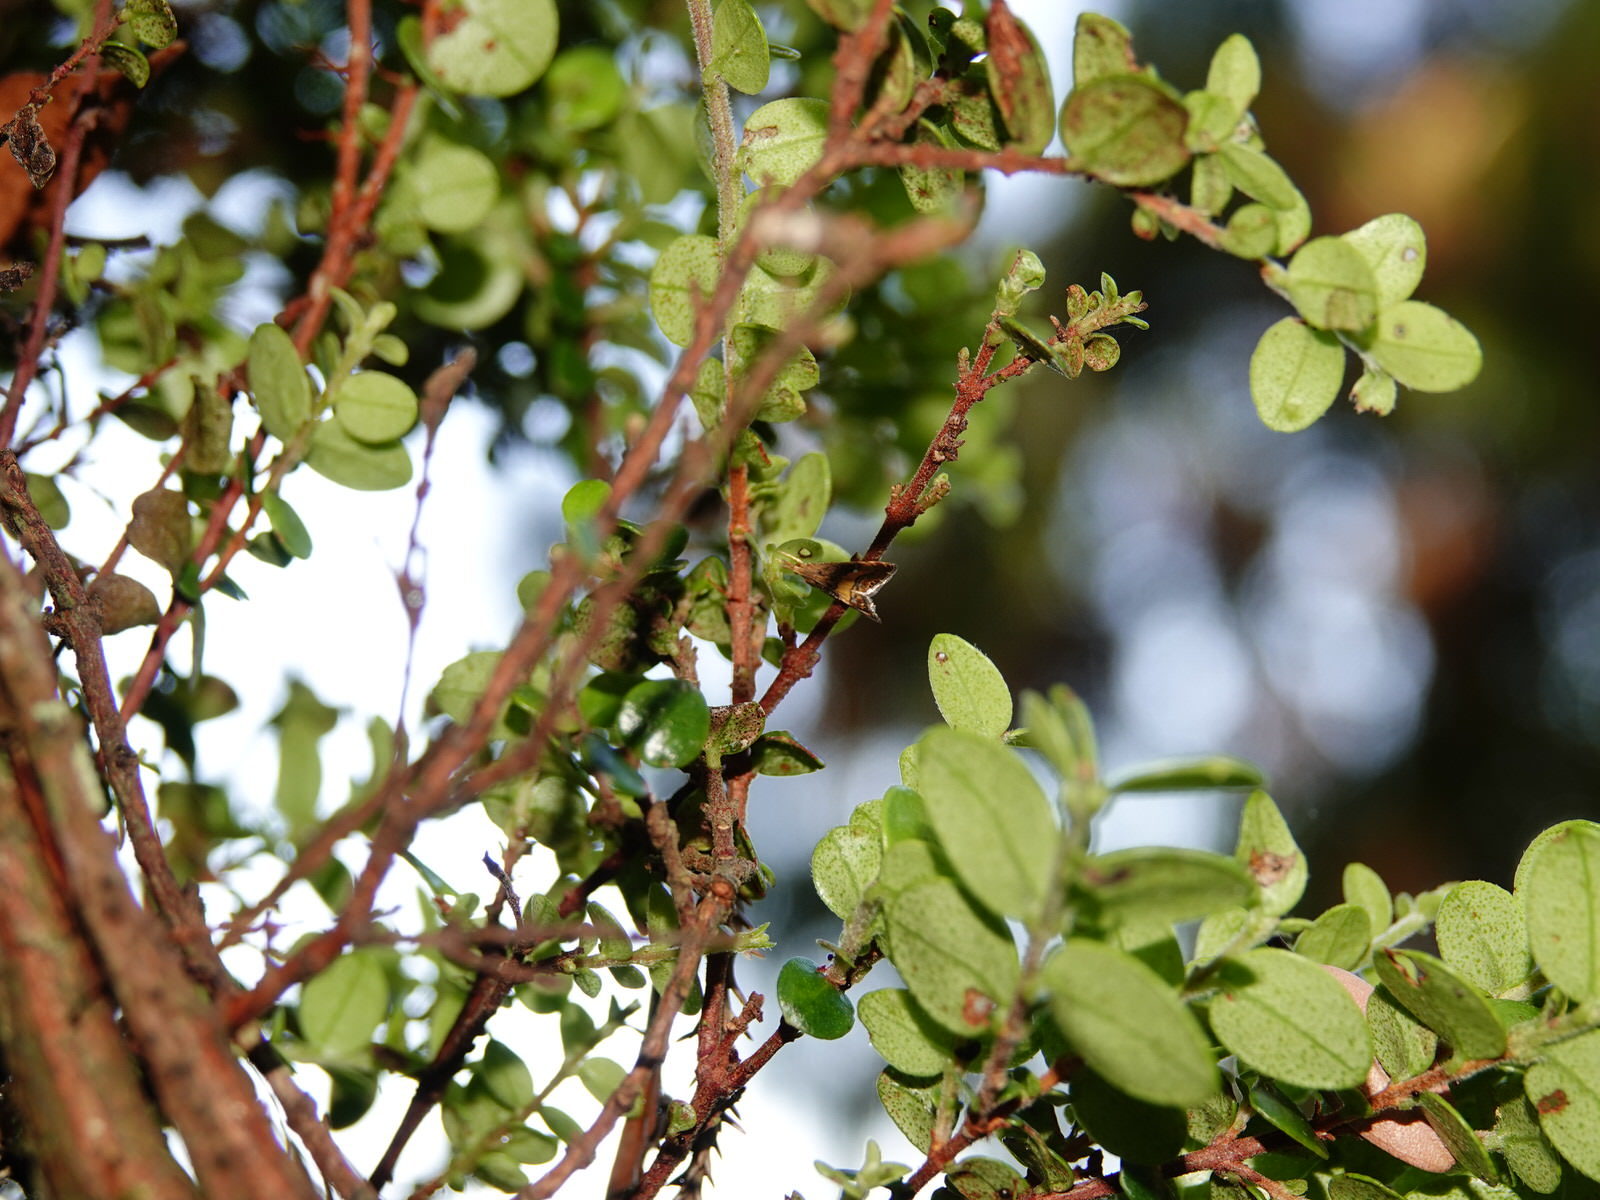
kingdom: Animalia
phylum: Arthropoda
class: Insecta
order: Lepidoptera
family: Crambidae
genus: Glaucocharis
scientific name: Glaucocharis chrysochyta
